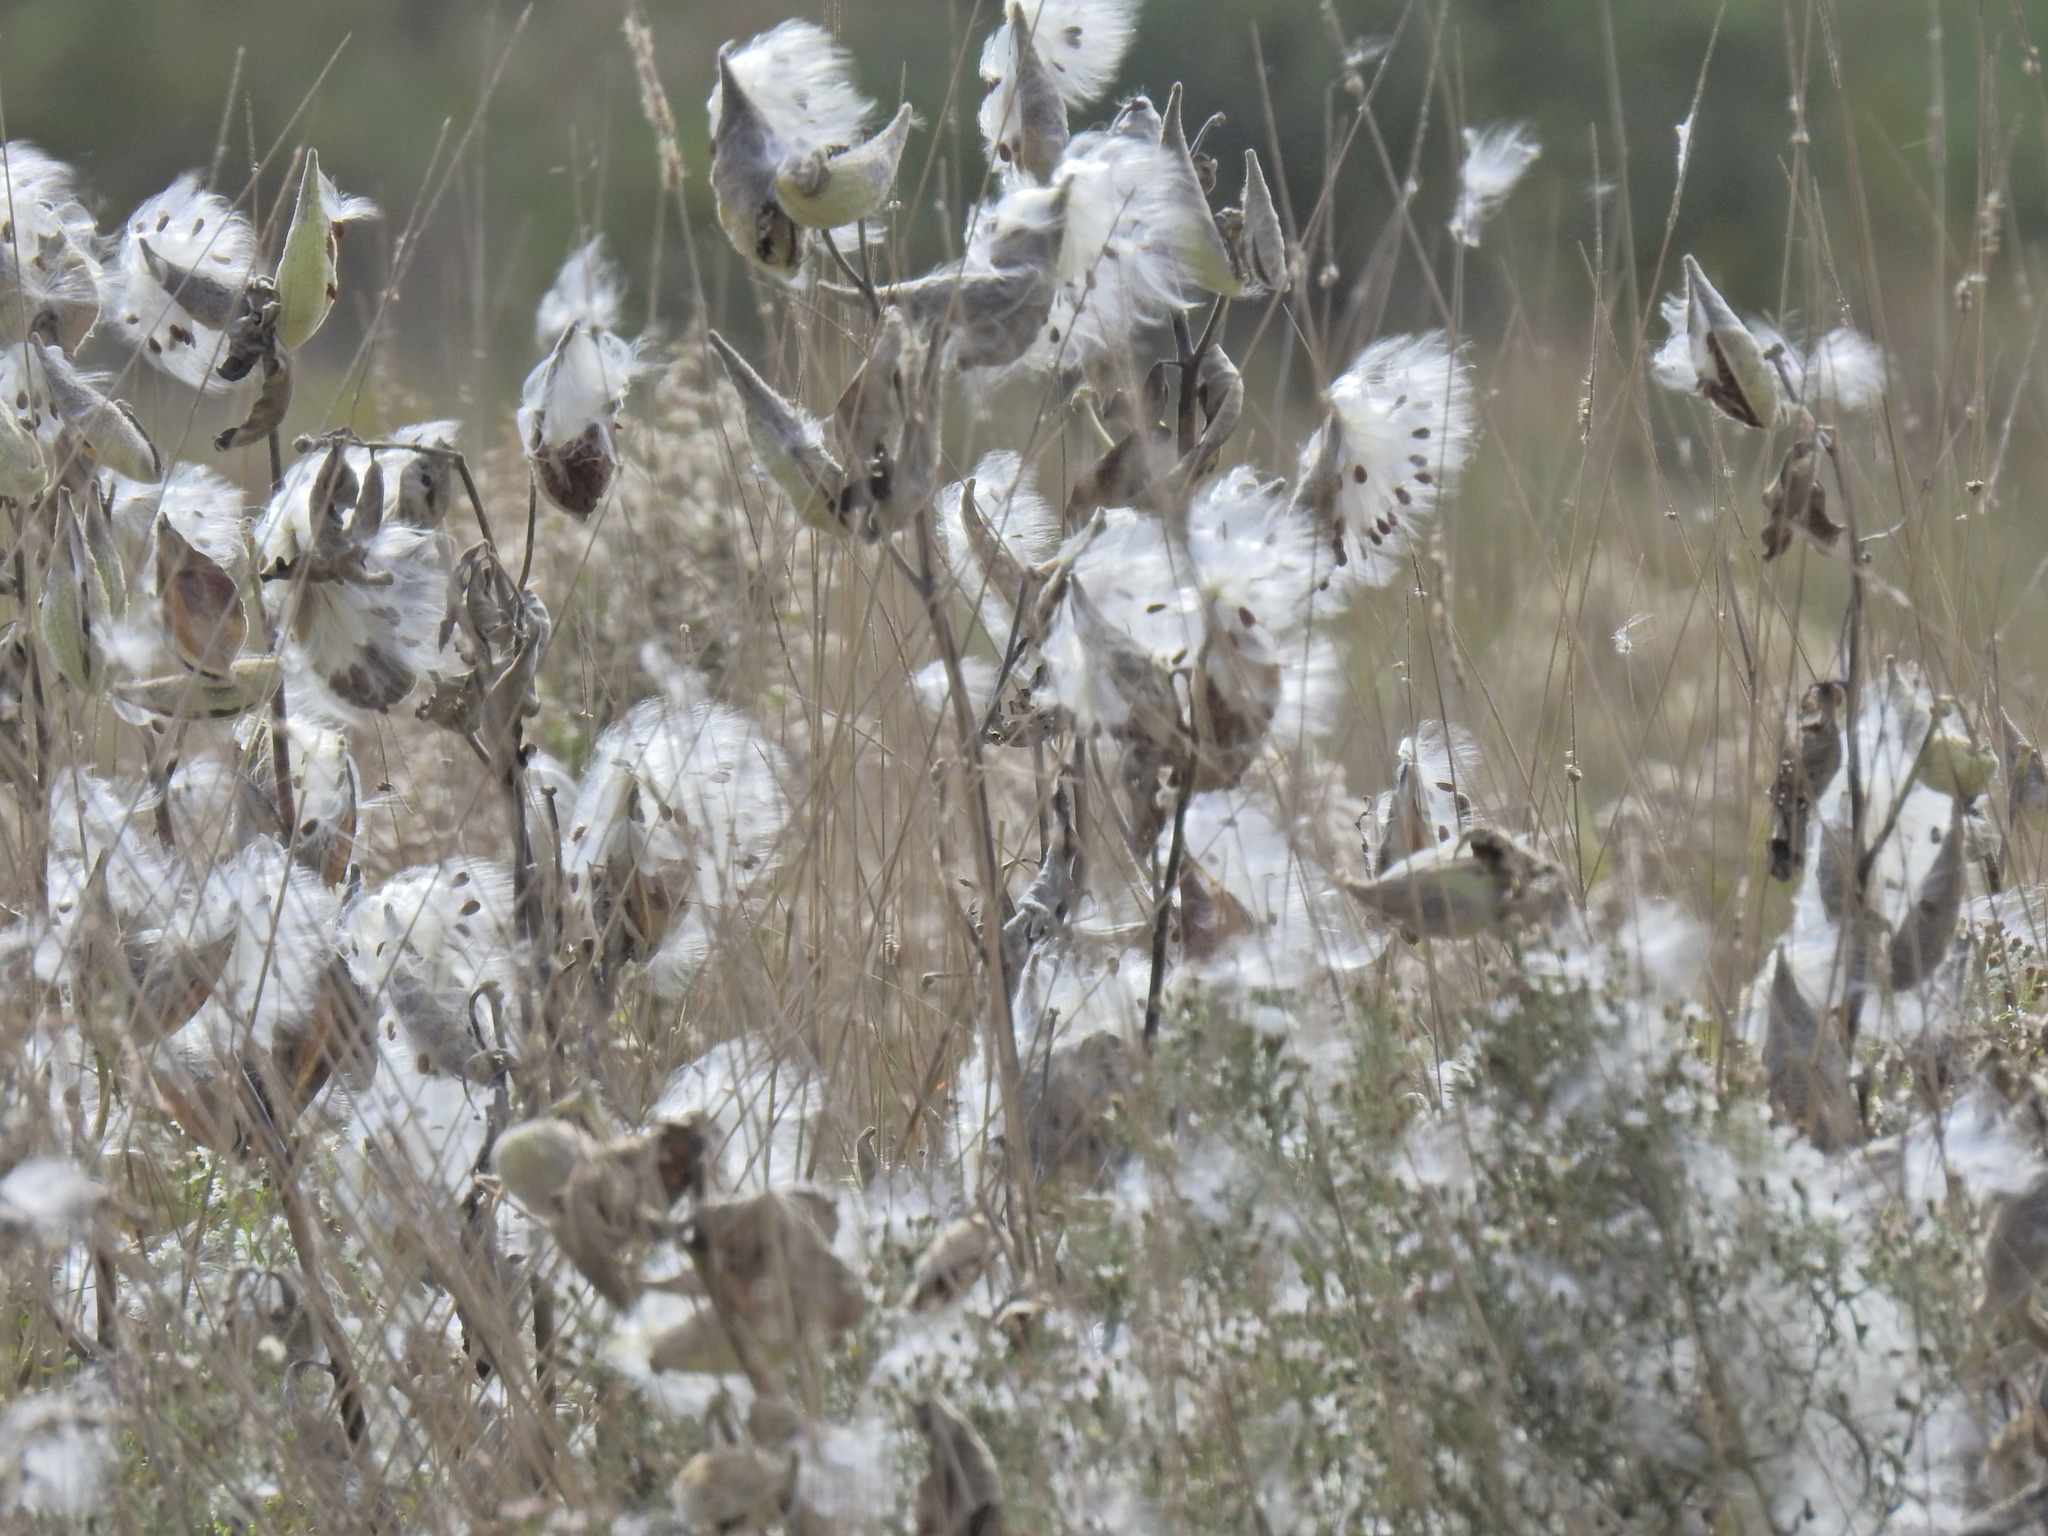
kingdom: Plantae
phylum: Tracheophyta
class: Magnoliopsida
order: Gentianales
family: Apocynaceae
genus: Asclepias
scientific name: Asclepias syriaca
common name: Common milkweed
